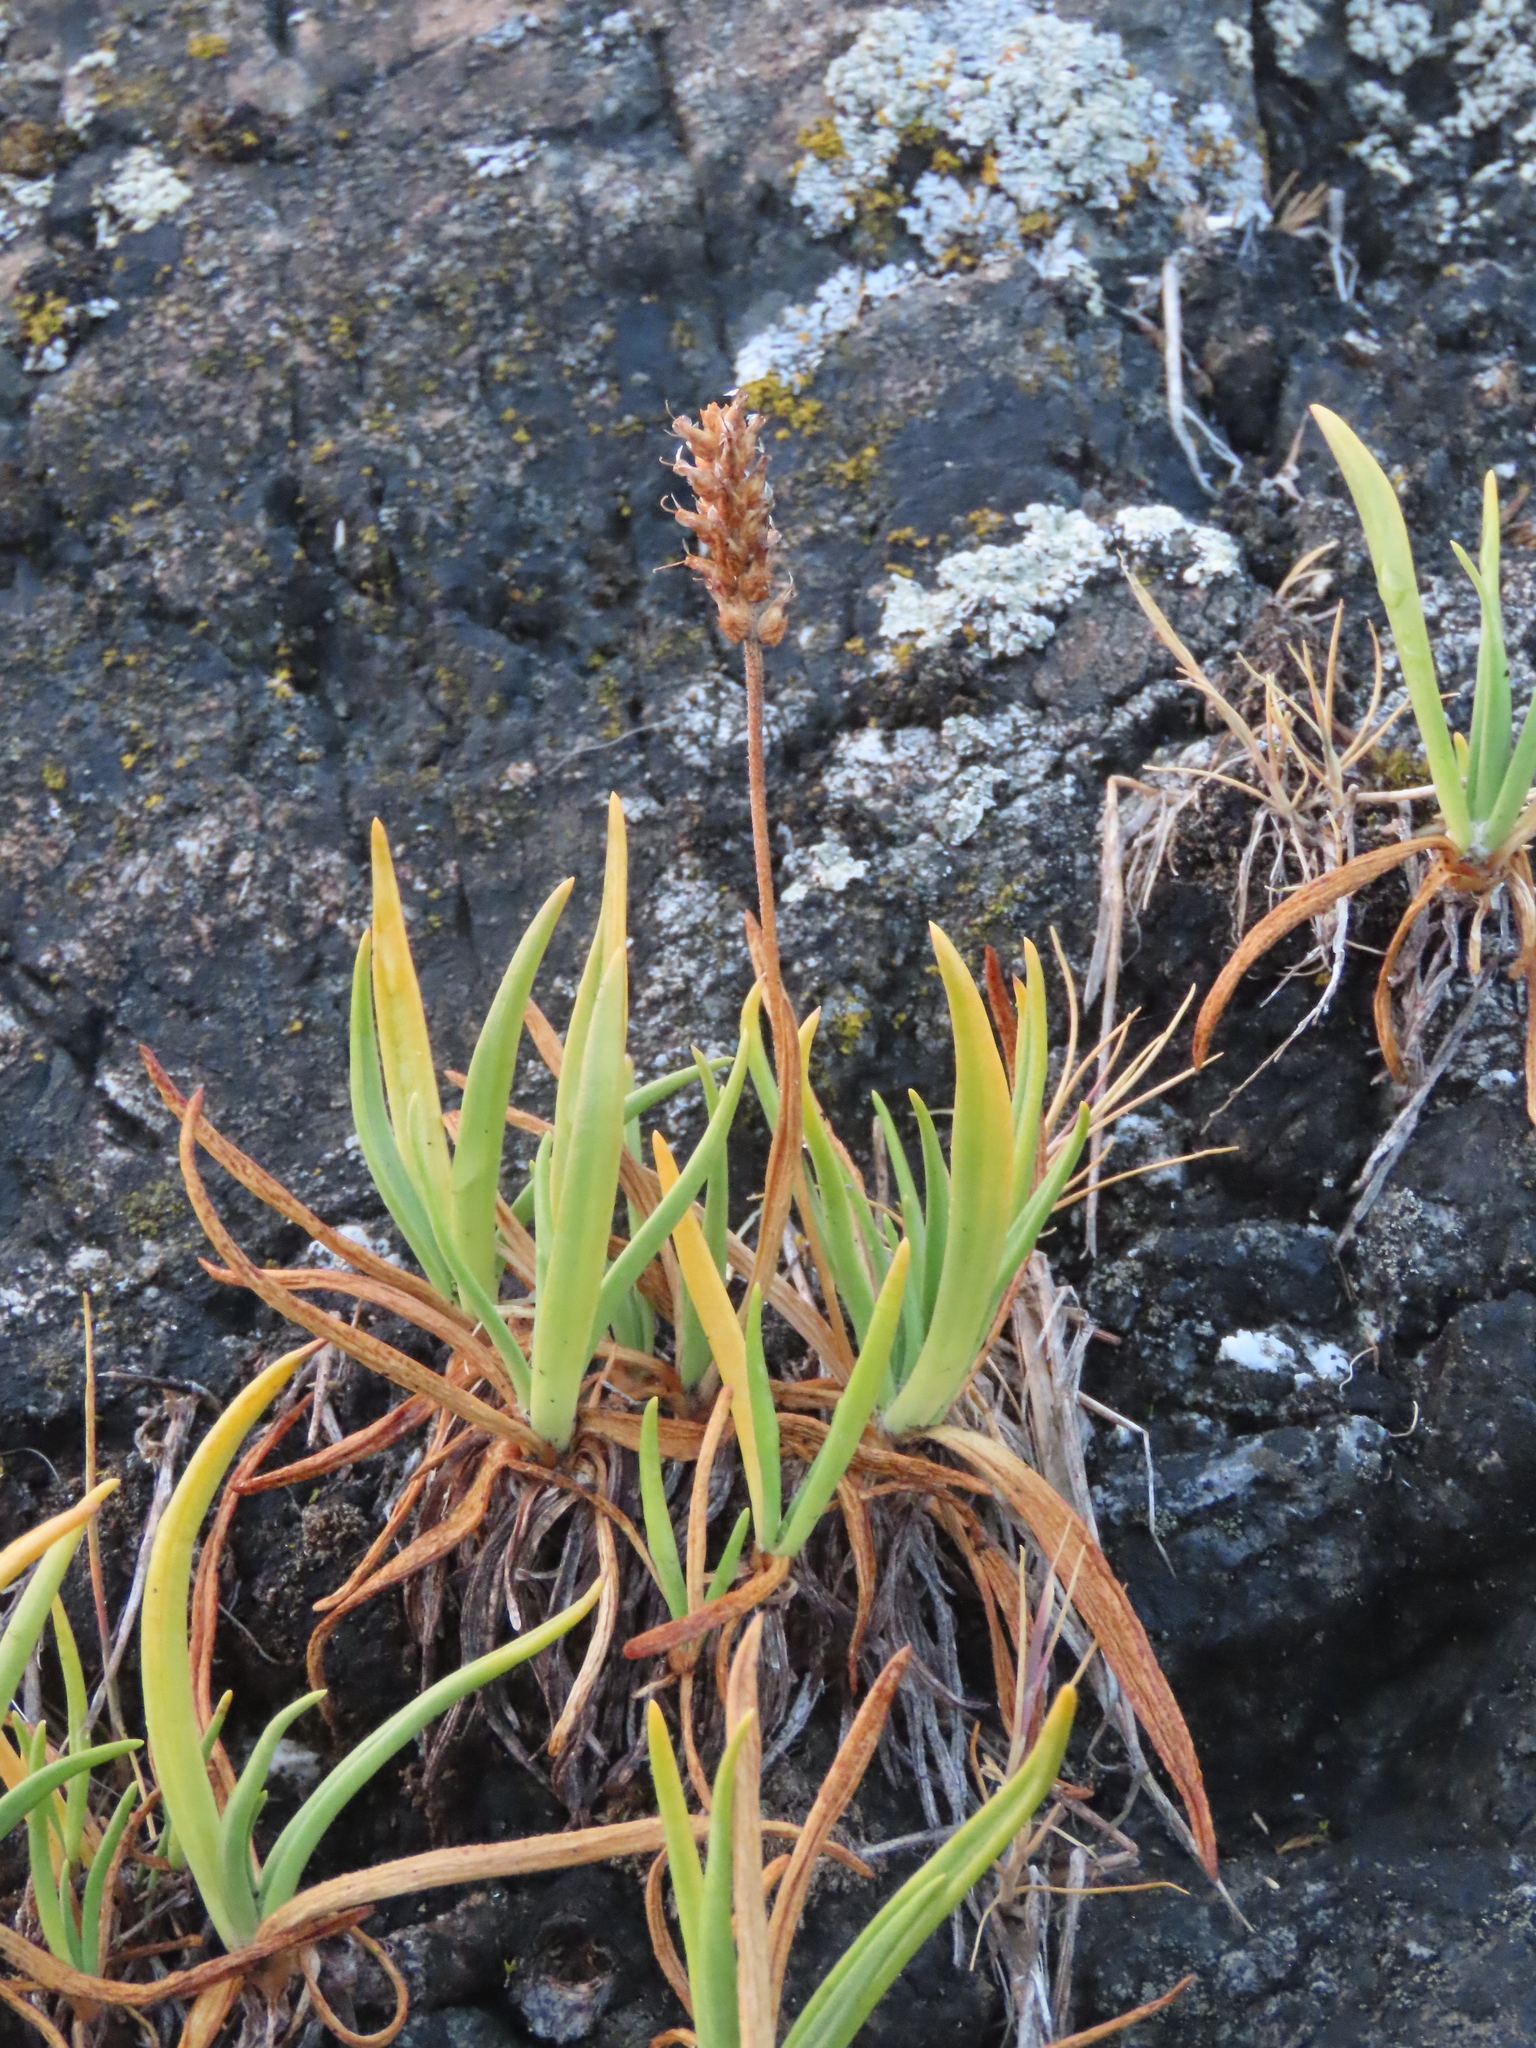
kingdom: Plantae
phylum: Tracheophyta
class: Magnoliopsida
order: Lamiales
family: Plantaginaceae
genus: Plantago
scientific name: Plantago maritima
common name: Sea plantain
